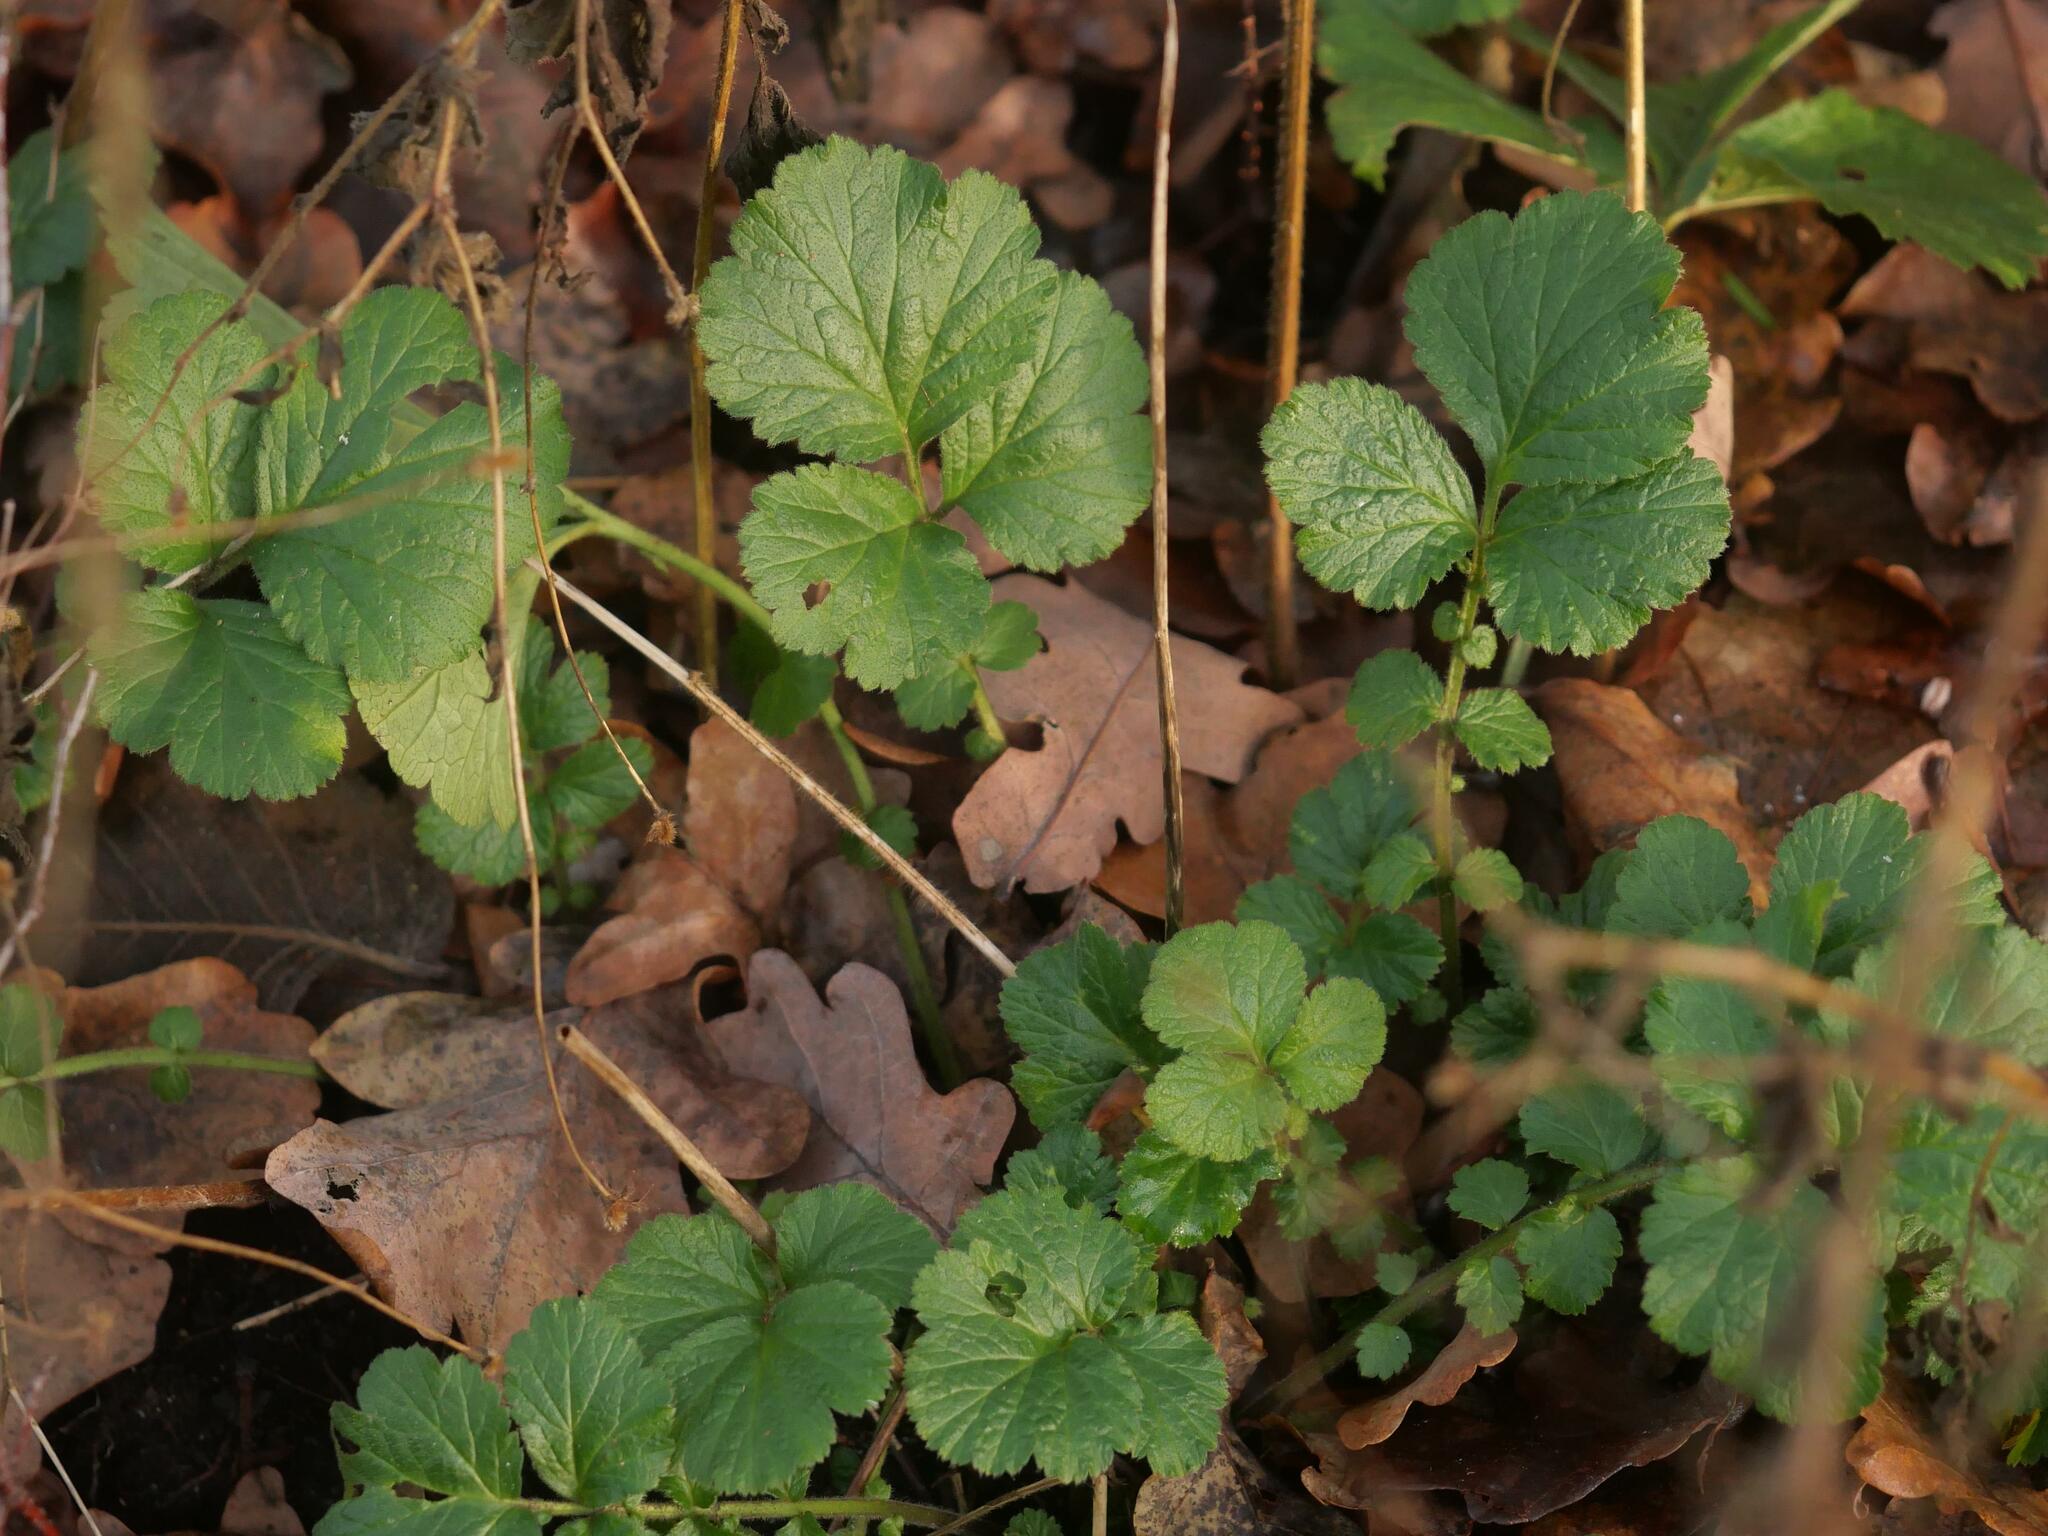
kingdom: Plantae
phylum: Tracheophyta
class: Magnoliopsida
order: Rosales
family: Rosaceae
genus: Geum
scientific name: Geum urbanum
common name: Wood avens
